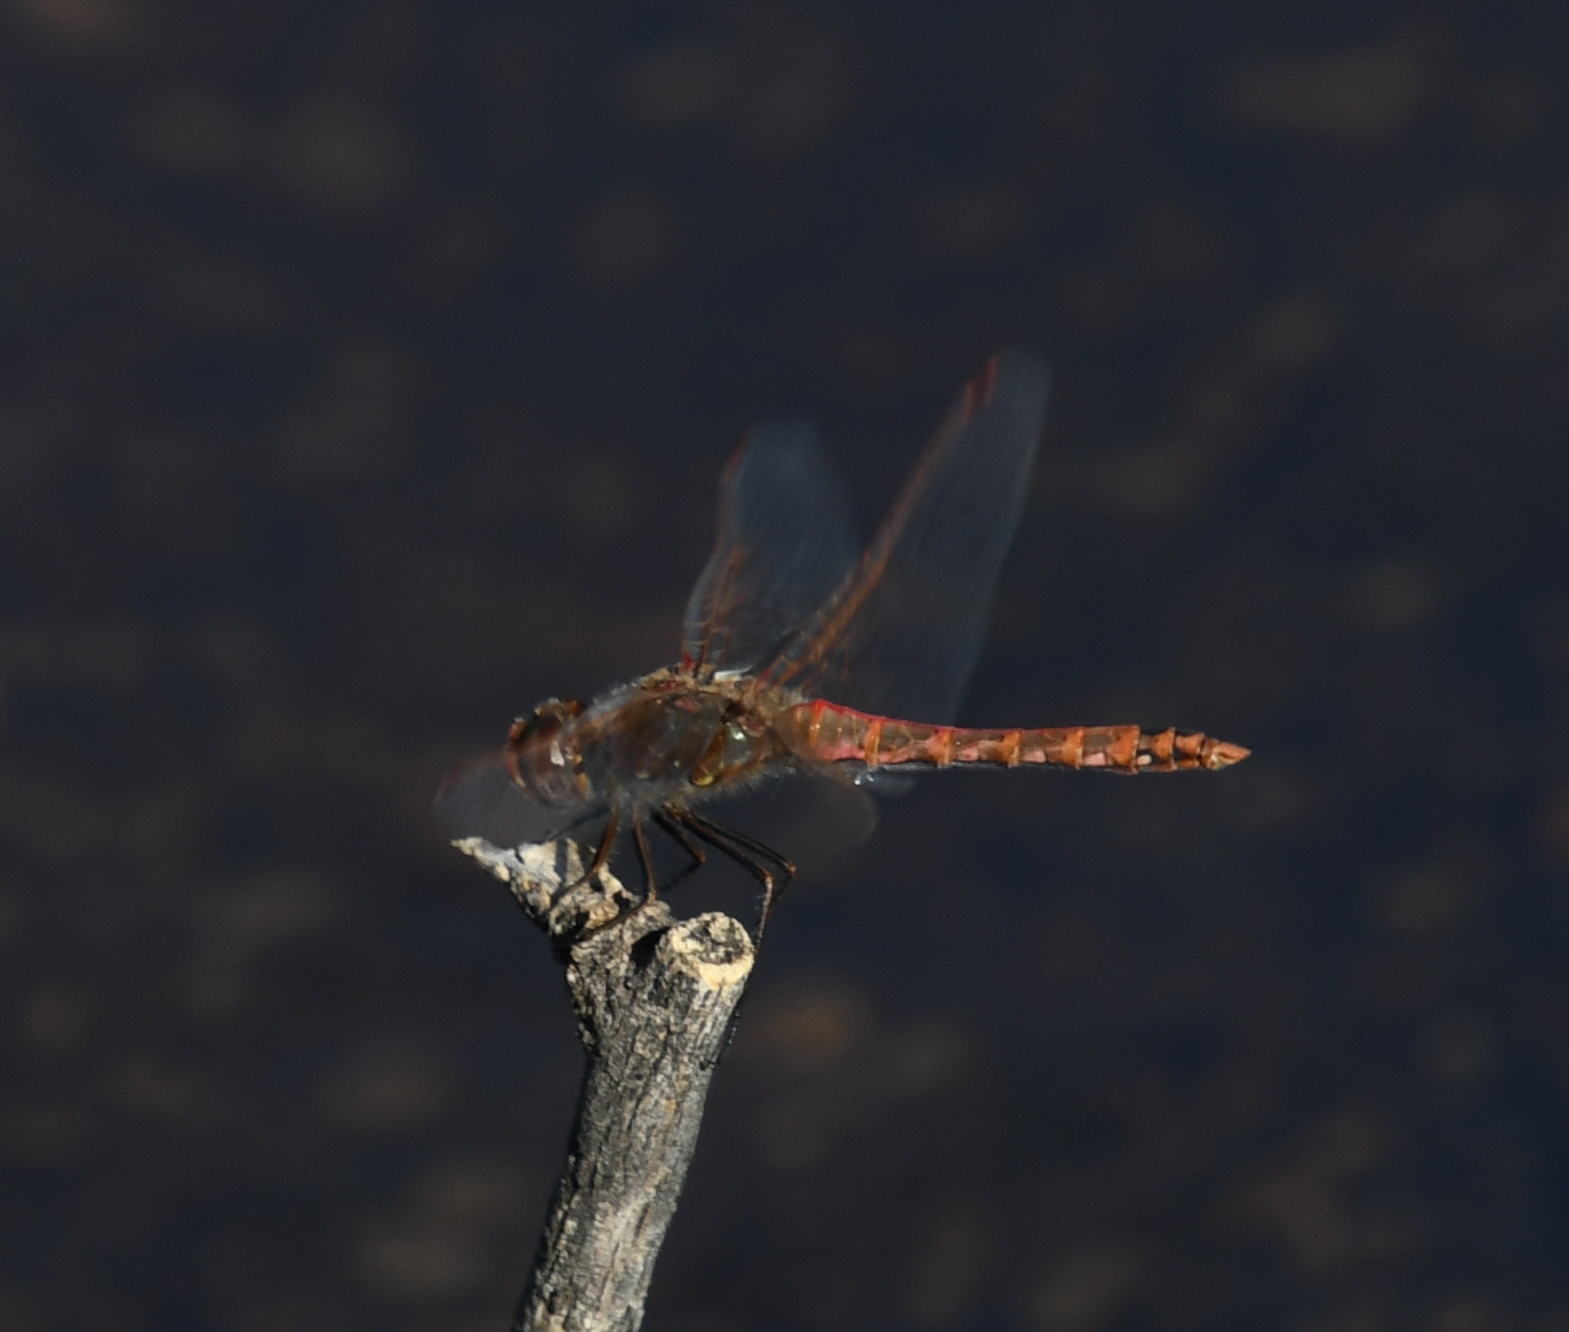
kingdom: Animalia
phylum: Arthropoda
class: Insecta
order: Odonata
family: Libellulidae
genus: Sympetrum
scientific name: Sympetrum corruptum
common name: Variegated meadowhawk
